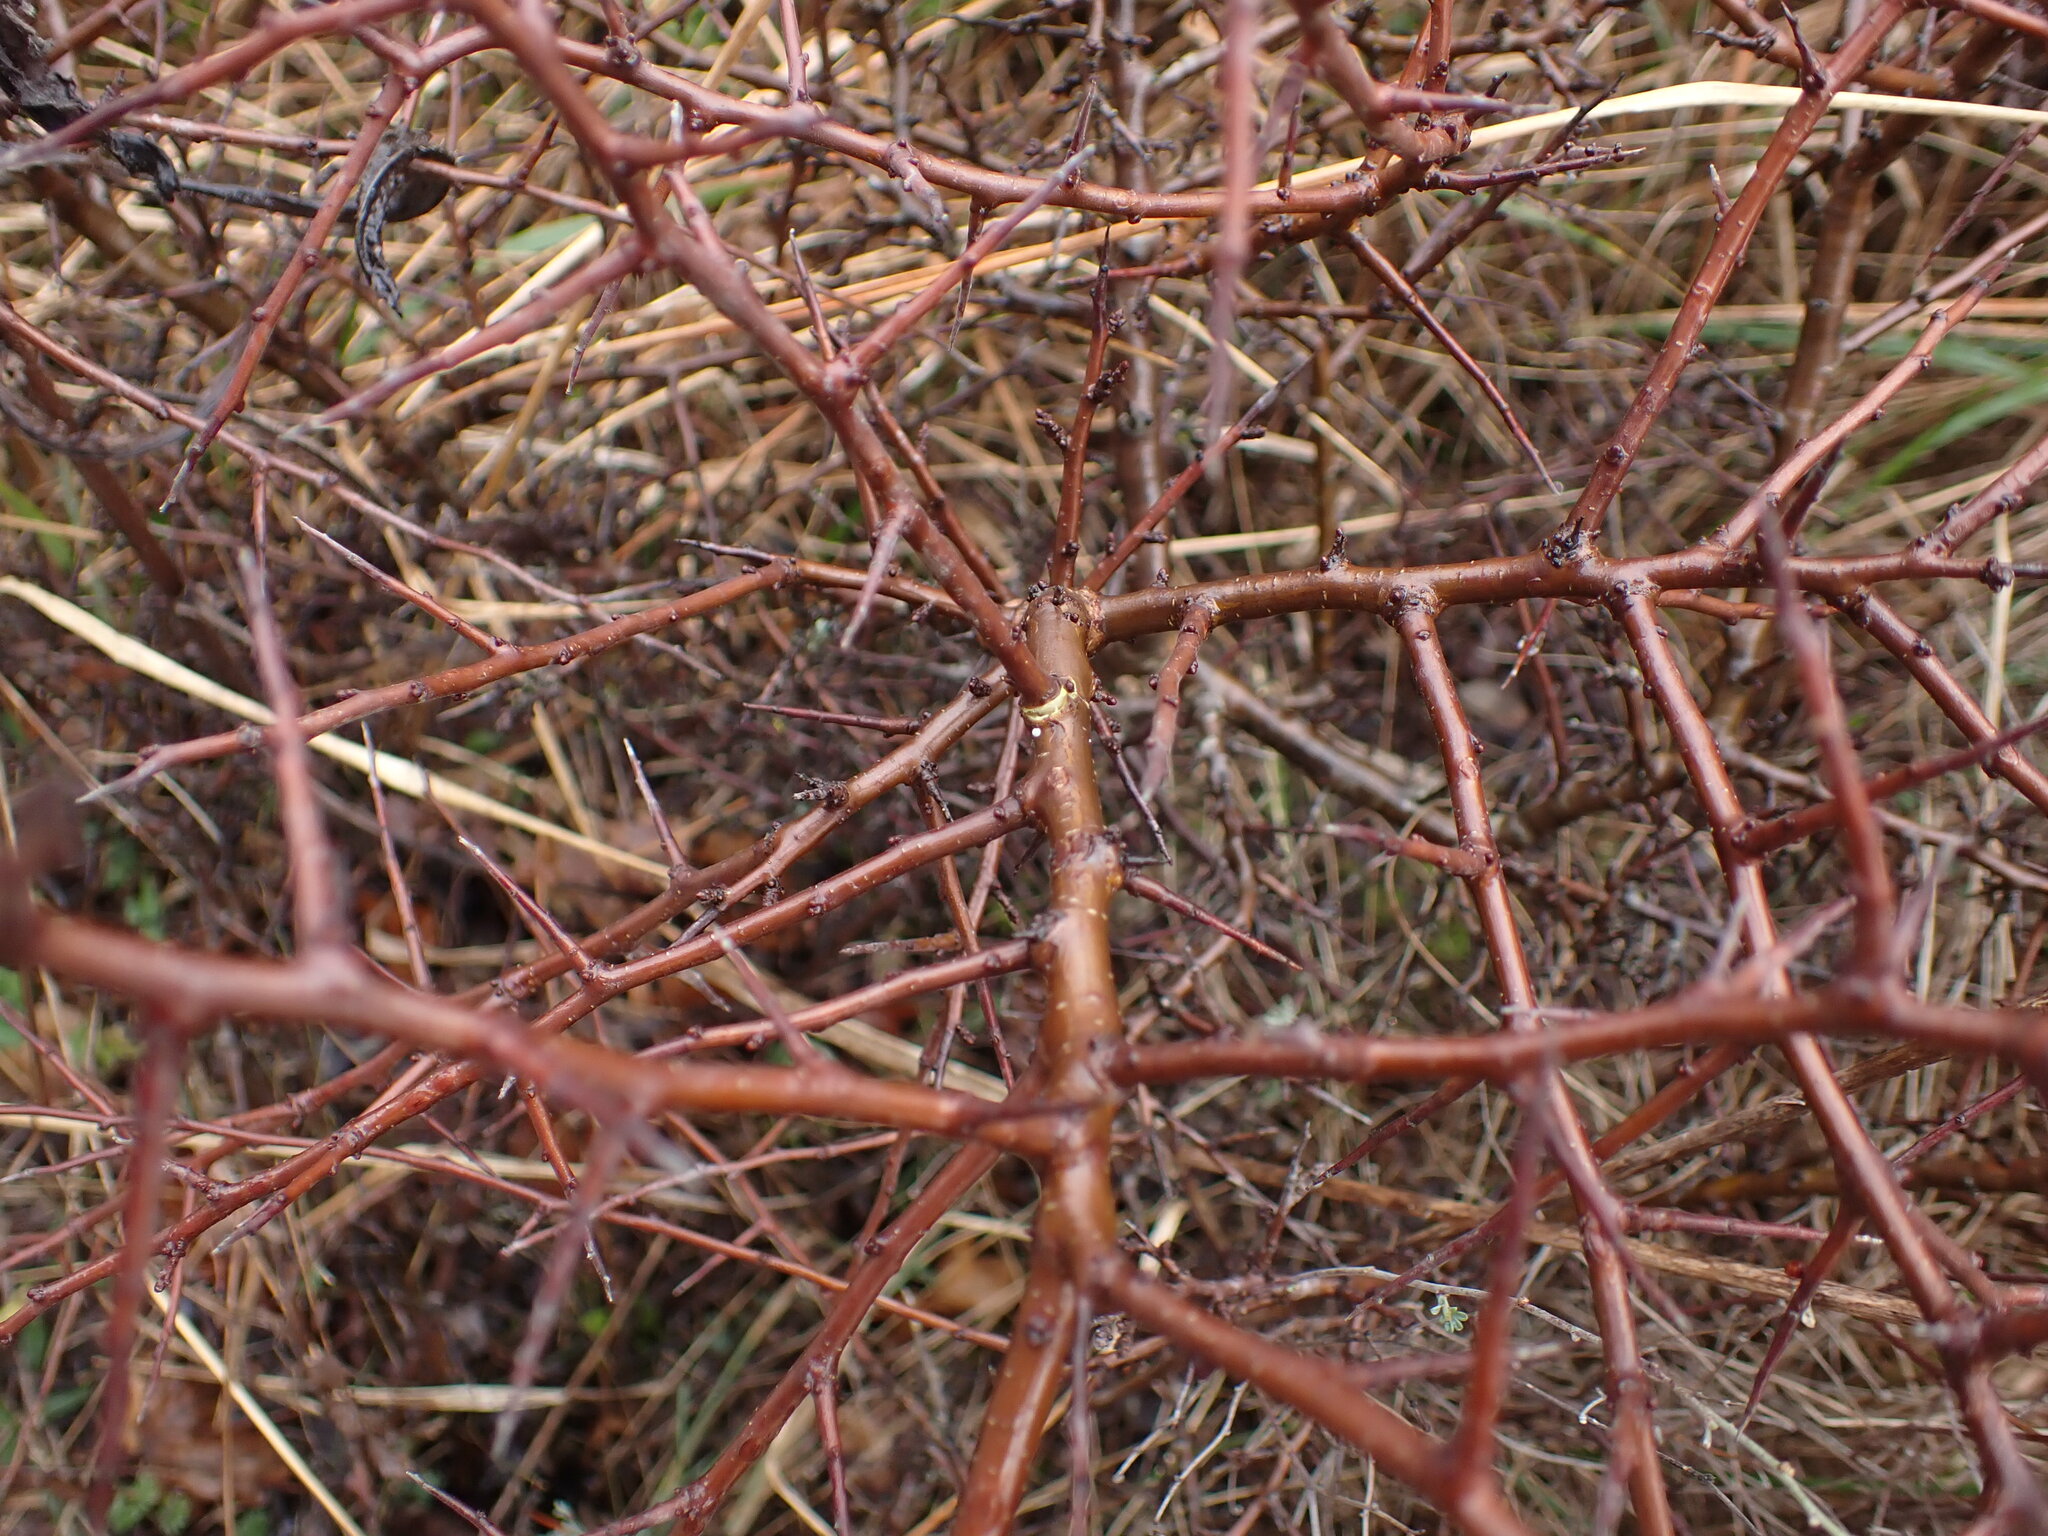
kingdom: Animalia
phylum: Arthropoda
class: Insecta
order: Lepidoptera
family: Lycaenidae
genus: Thecla
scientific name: Thecla betulae
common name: Brown hairstreak
